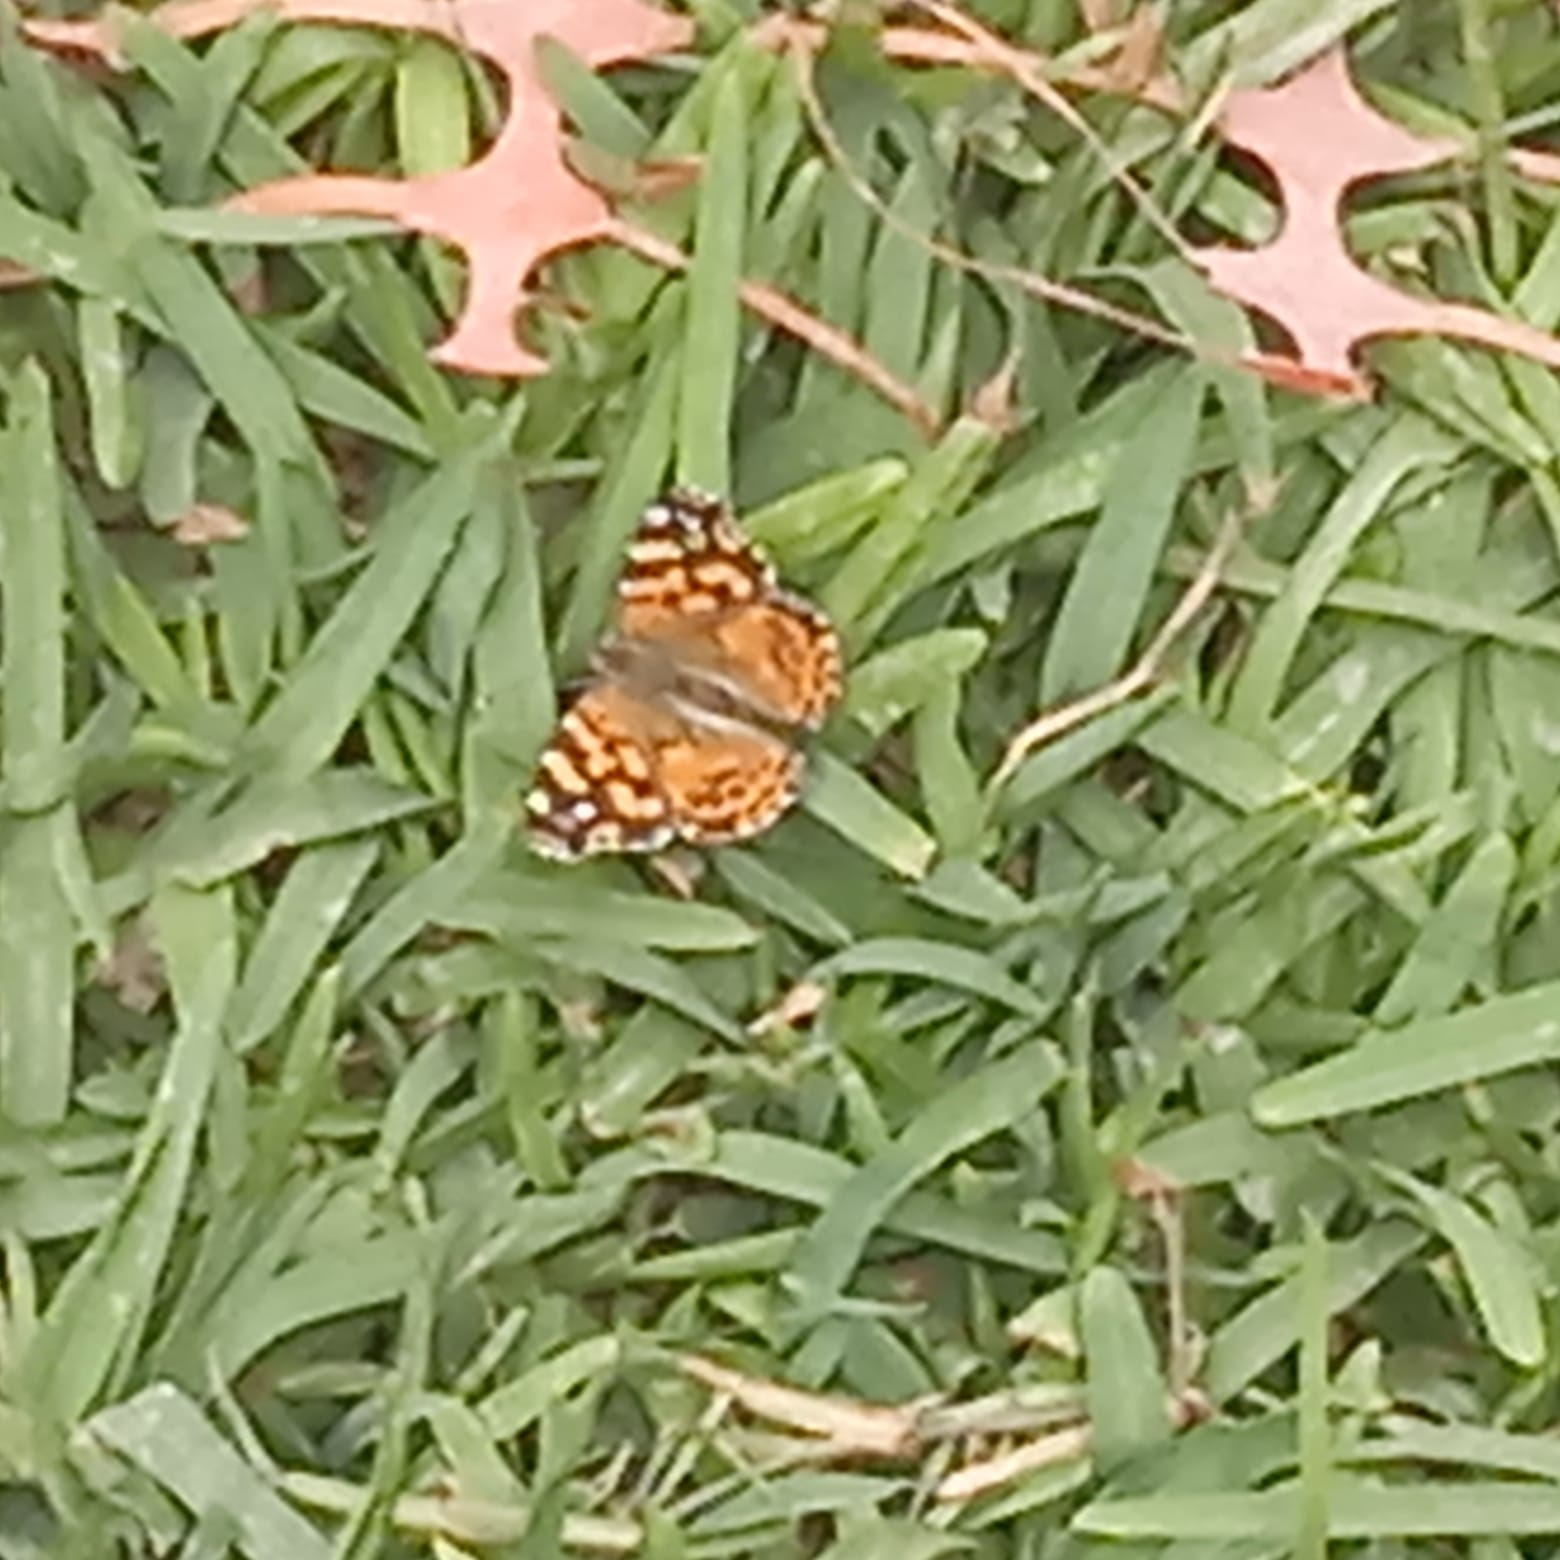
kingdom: Animalia
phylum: Arthropoda
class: Insecta
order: Lepidoptera
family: Nymphalidae
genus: Vanessa
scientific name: Vanessa carye
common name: Subtropical lady
